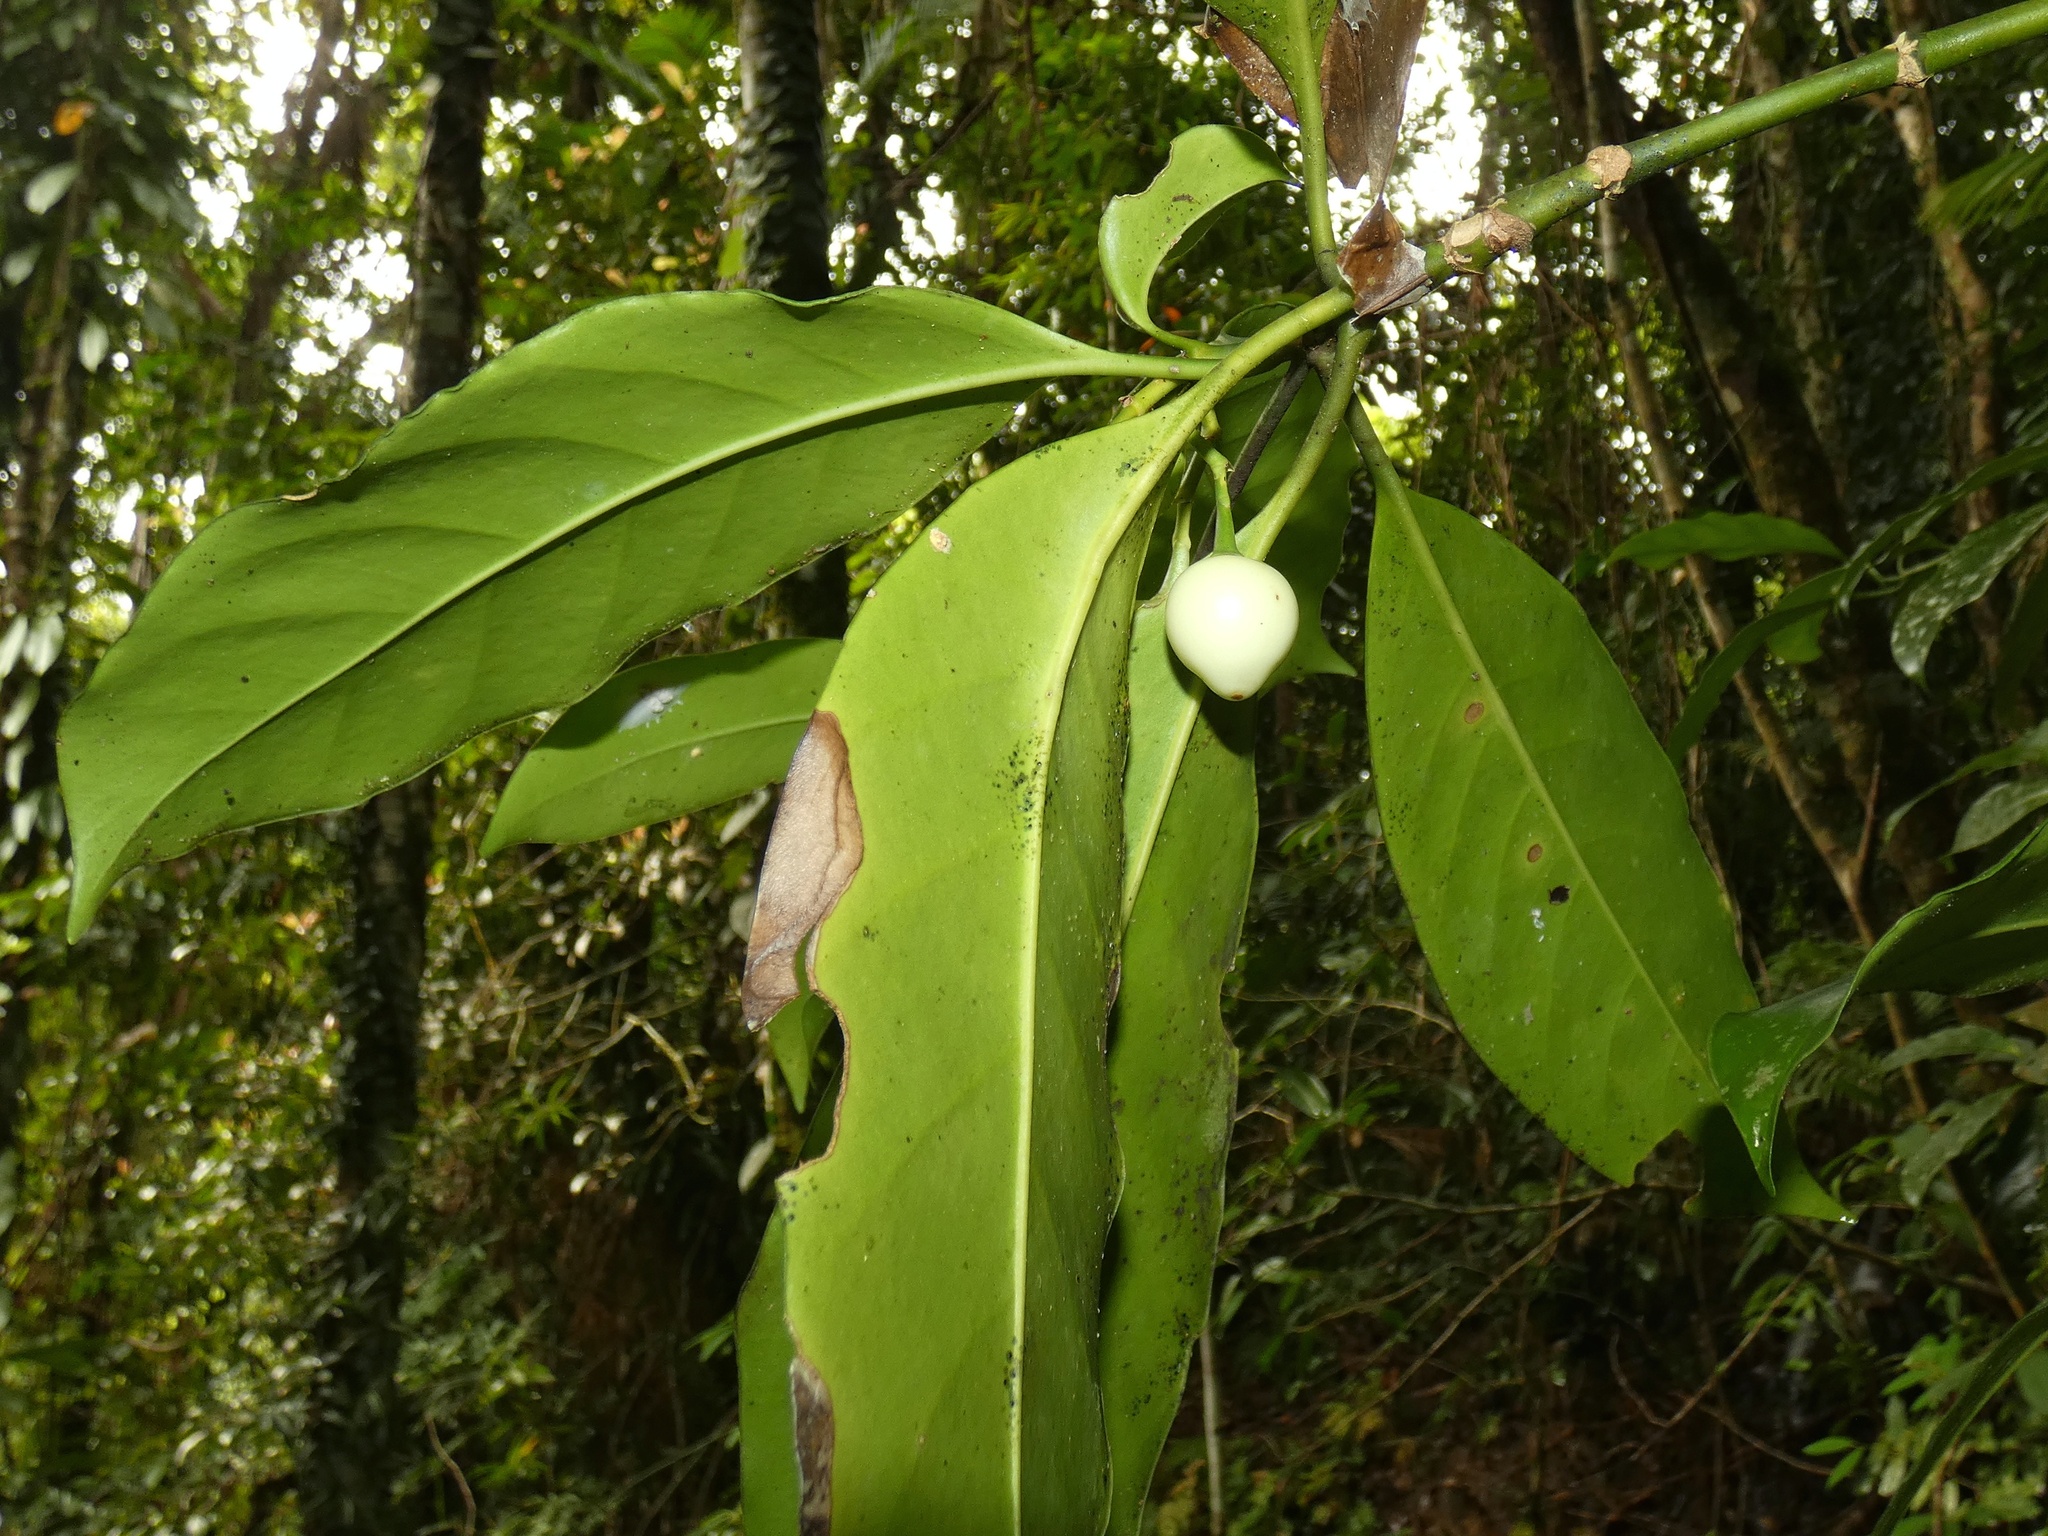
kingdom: Plantae
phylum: Tracheophyta
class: Magnoliopsida
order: Gentianales
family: Gentianaceae
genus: Fagraea
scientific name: Fagraea gracilipes
